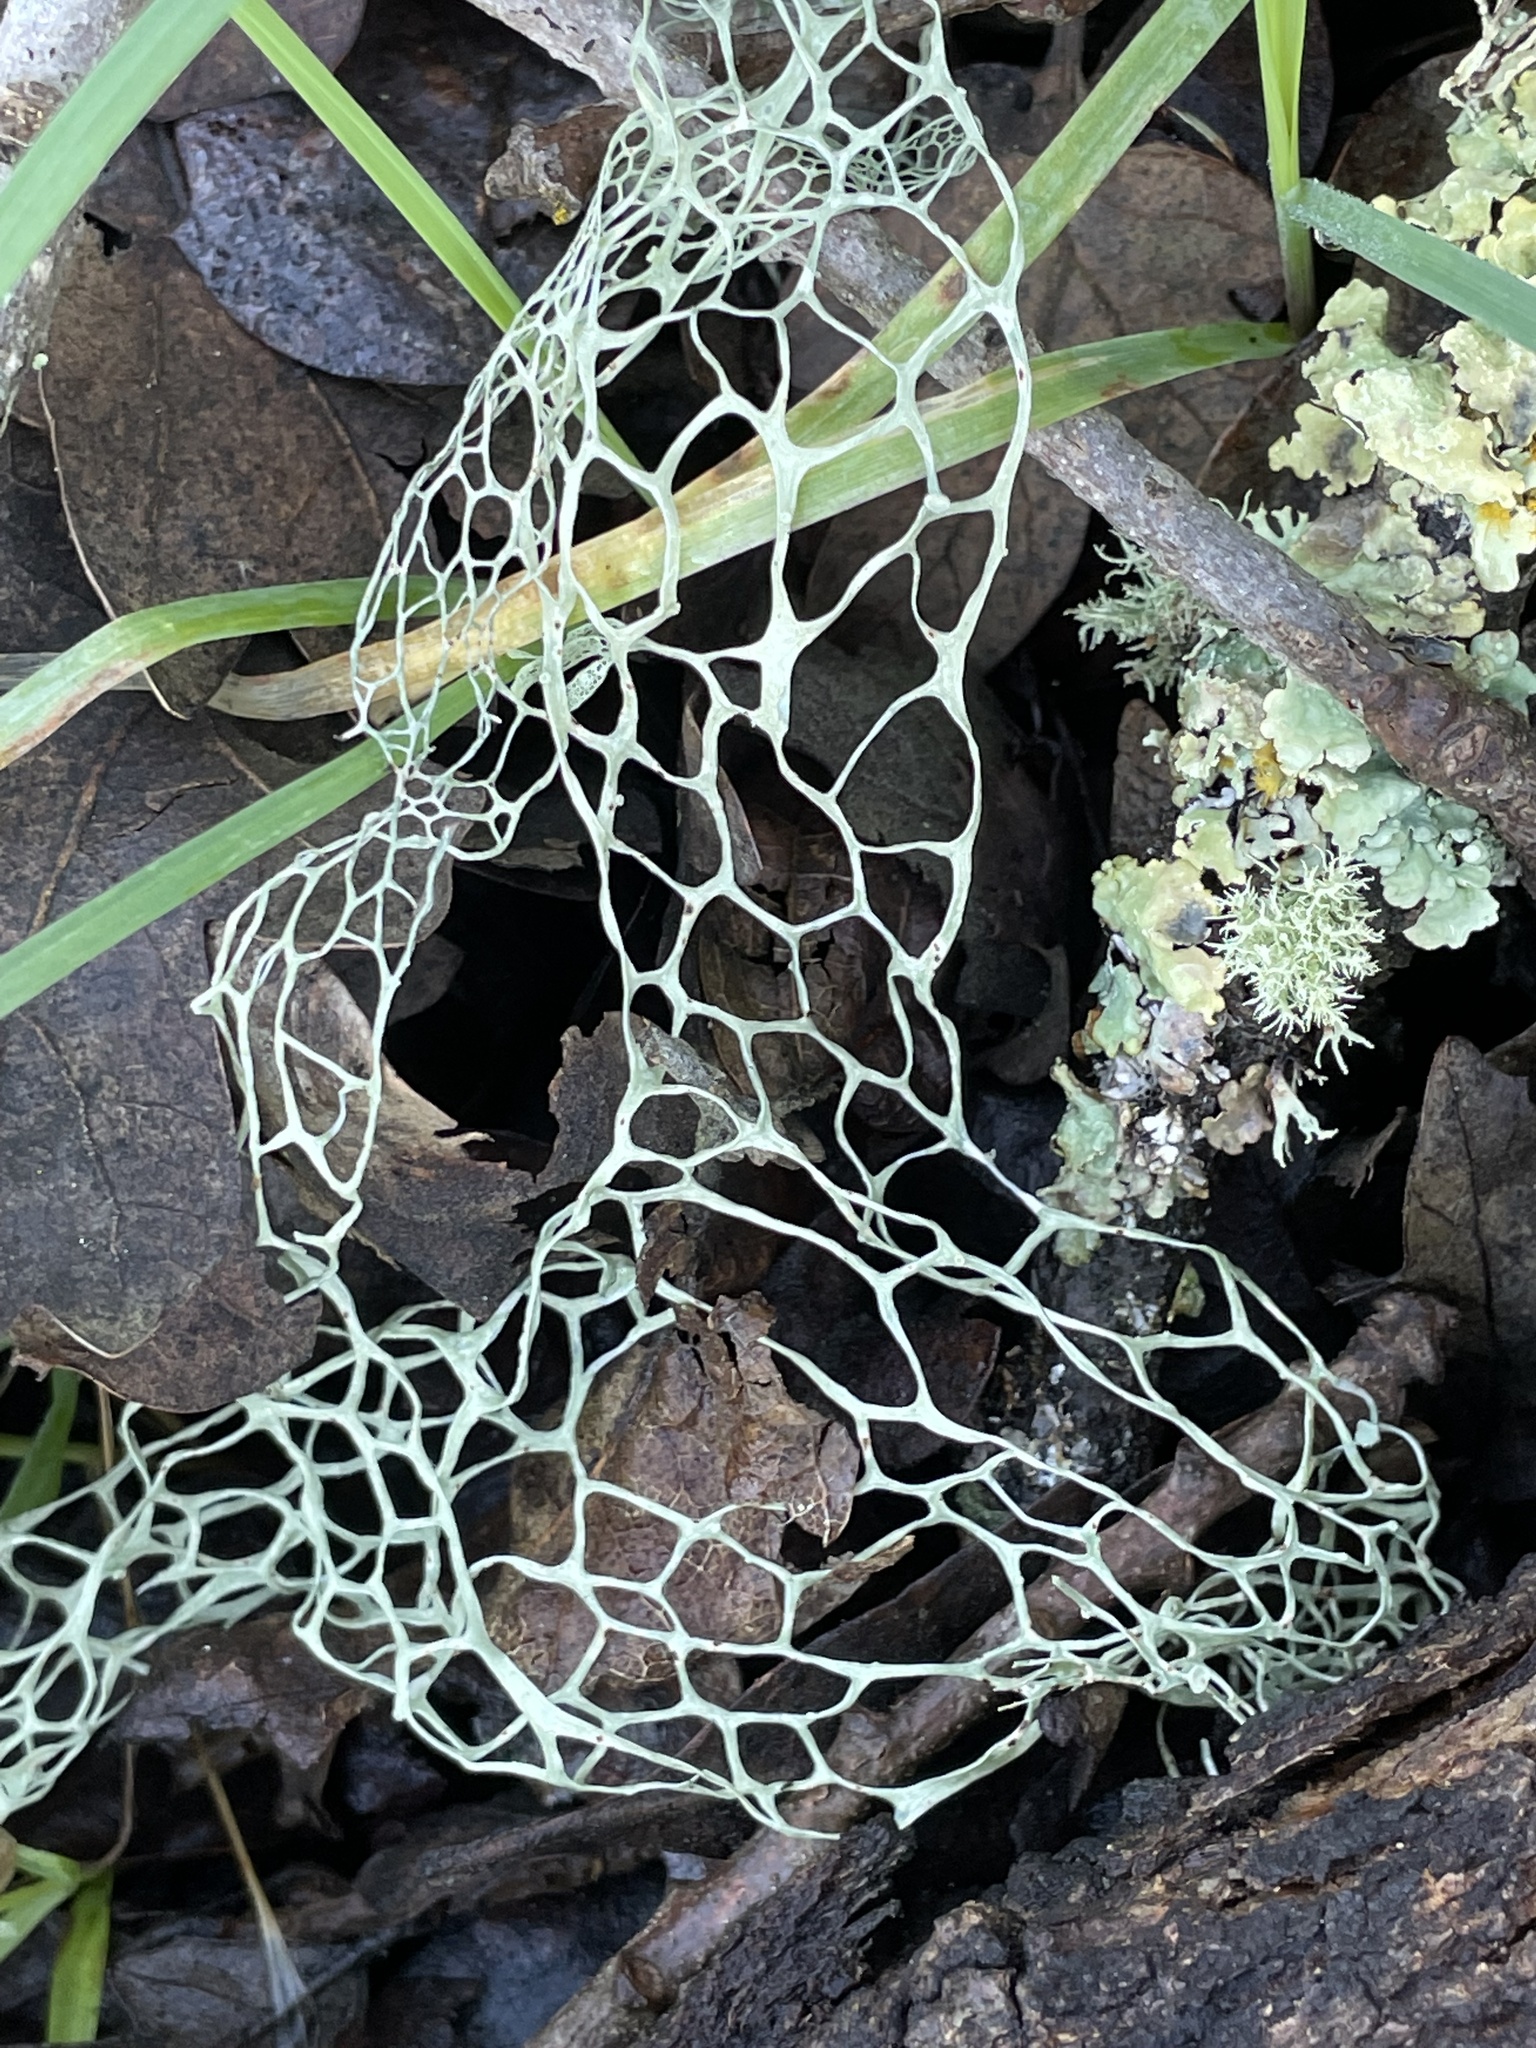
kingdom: Fungi
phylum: Ascomycota
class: Lecanoromycetes
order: Lecanorales
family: Ramalinaceae
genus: Ramalina
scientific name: Ramalina menziesii
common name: Lace lichen
